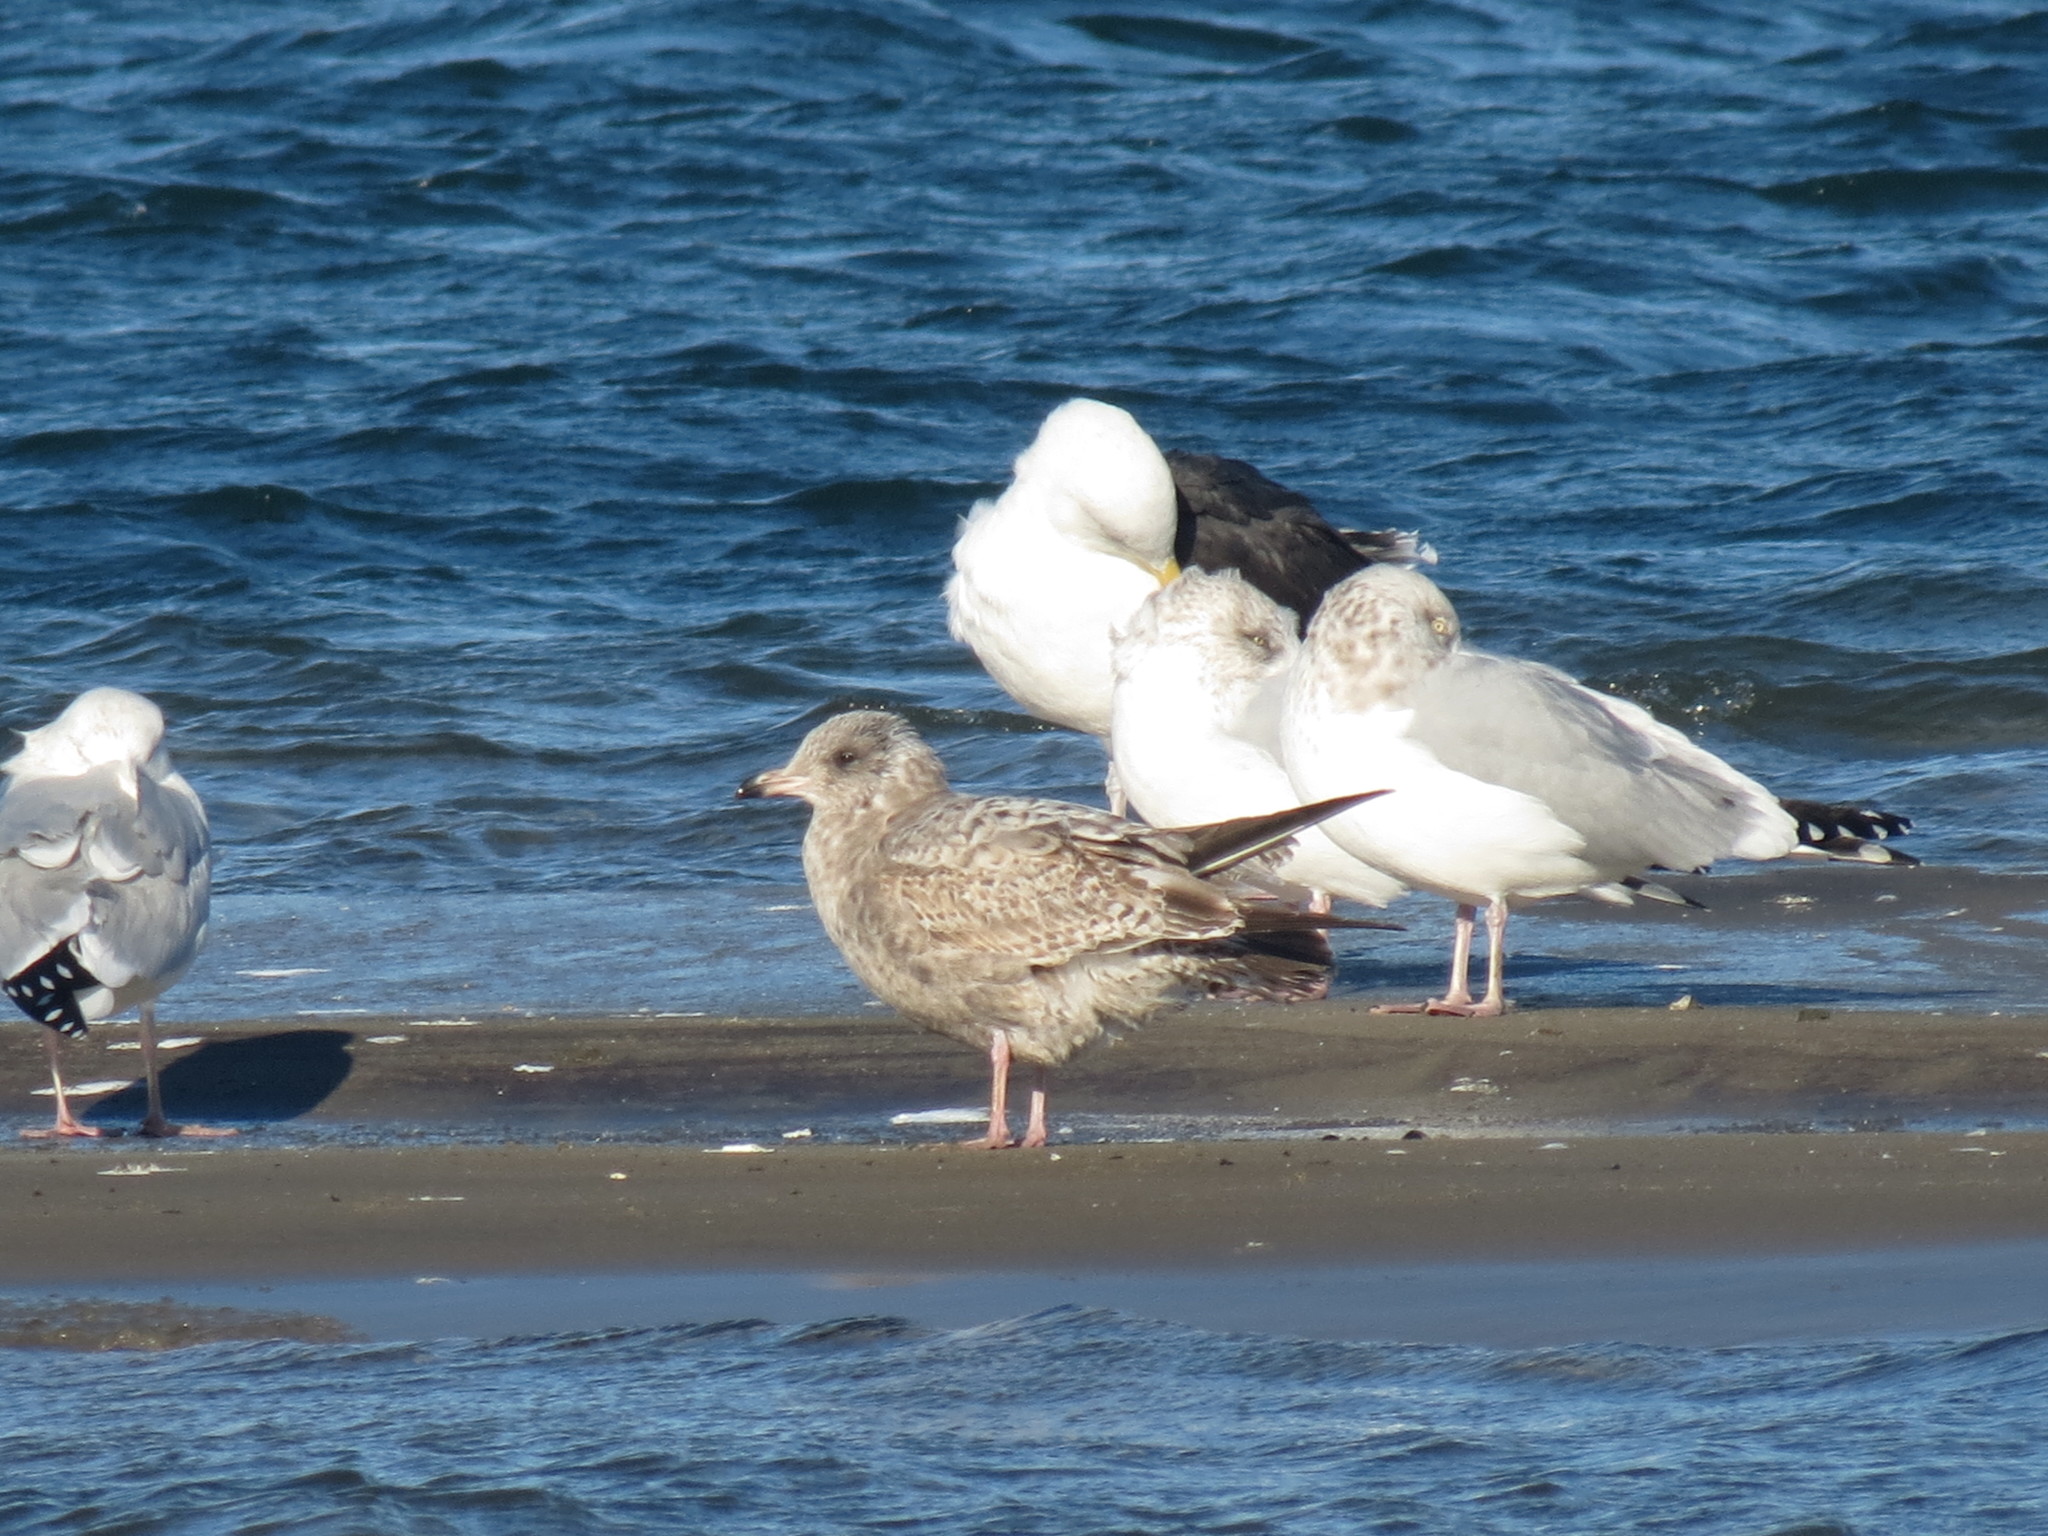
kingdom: Animalia
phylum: Chordata
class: Aves
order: Charadriiformes
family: Laridae
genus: Larus
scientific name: Larus argentatus
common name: Herring gull
